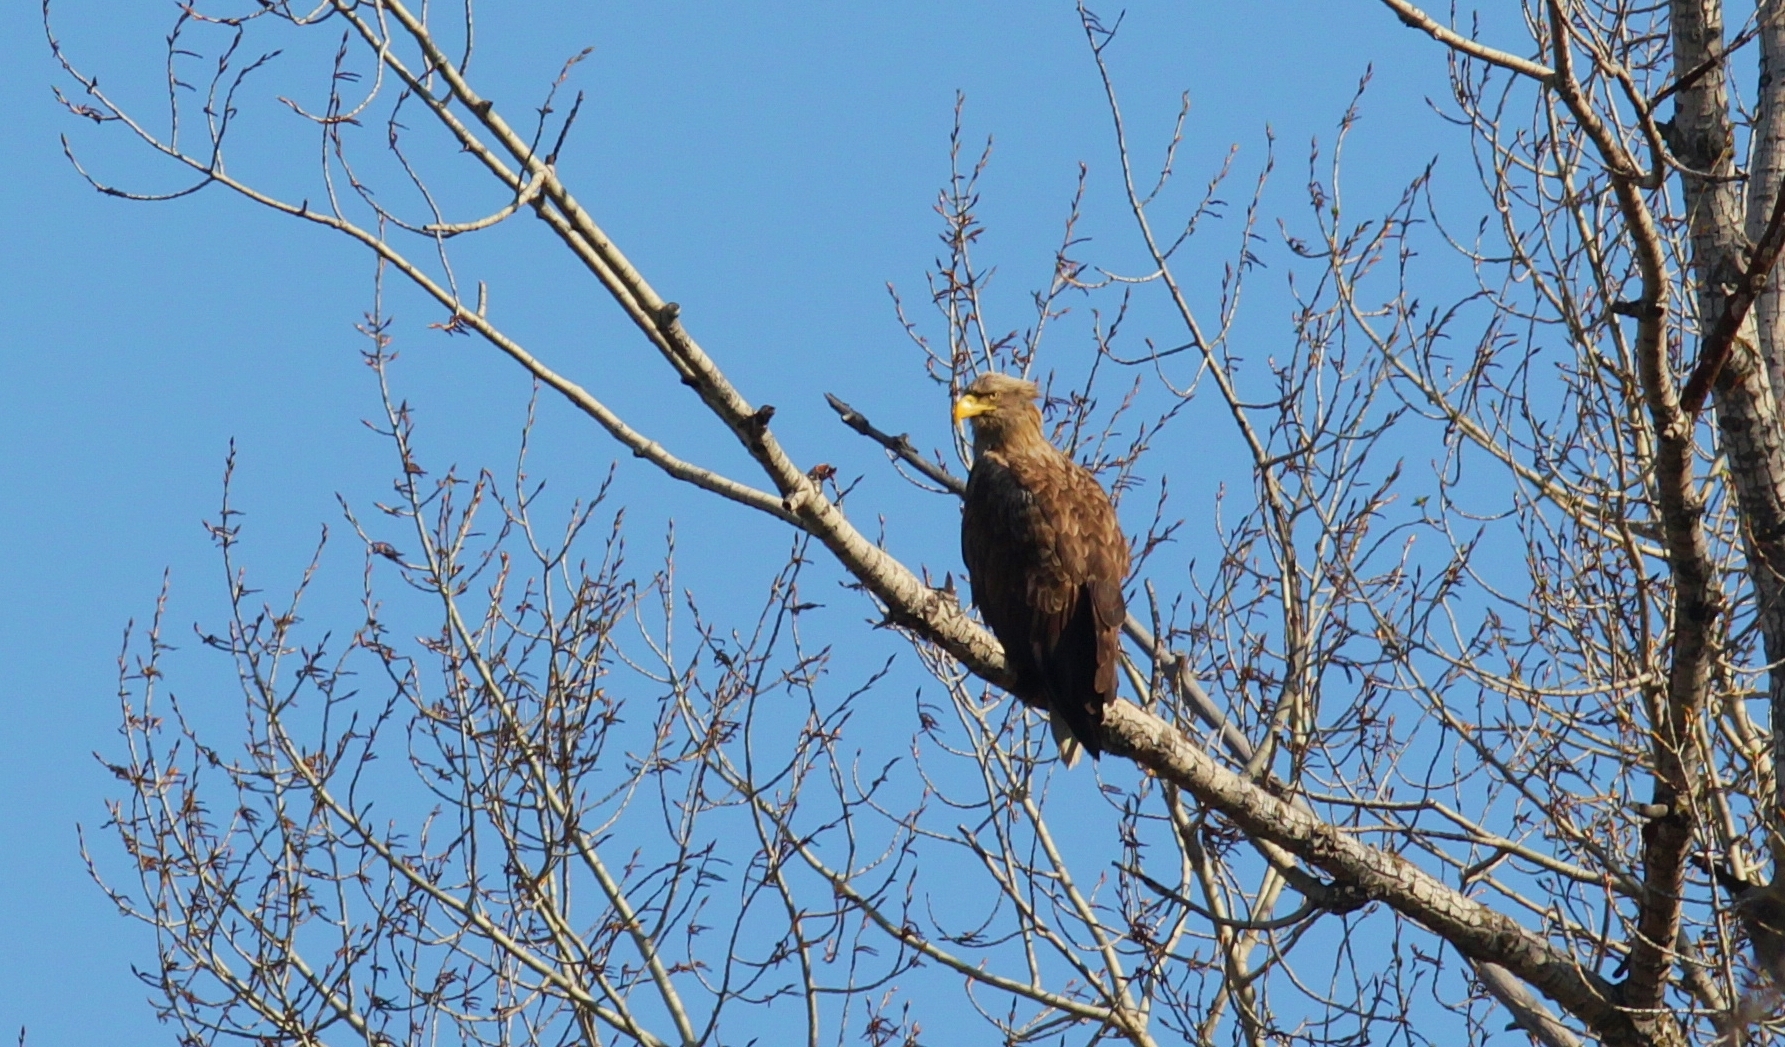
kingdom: Animalia
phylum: Chordata
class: Aves
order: Accipitriformes
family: Accipitridae
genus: Haliaeetus
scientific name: Haliaeetus albicilla
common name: White-tailed eagle
